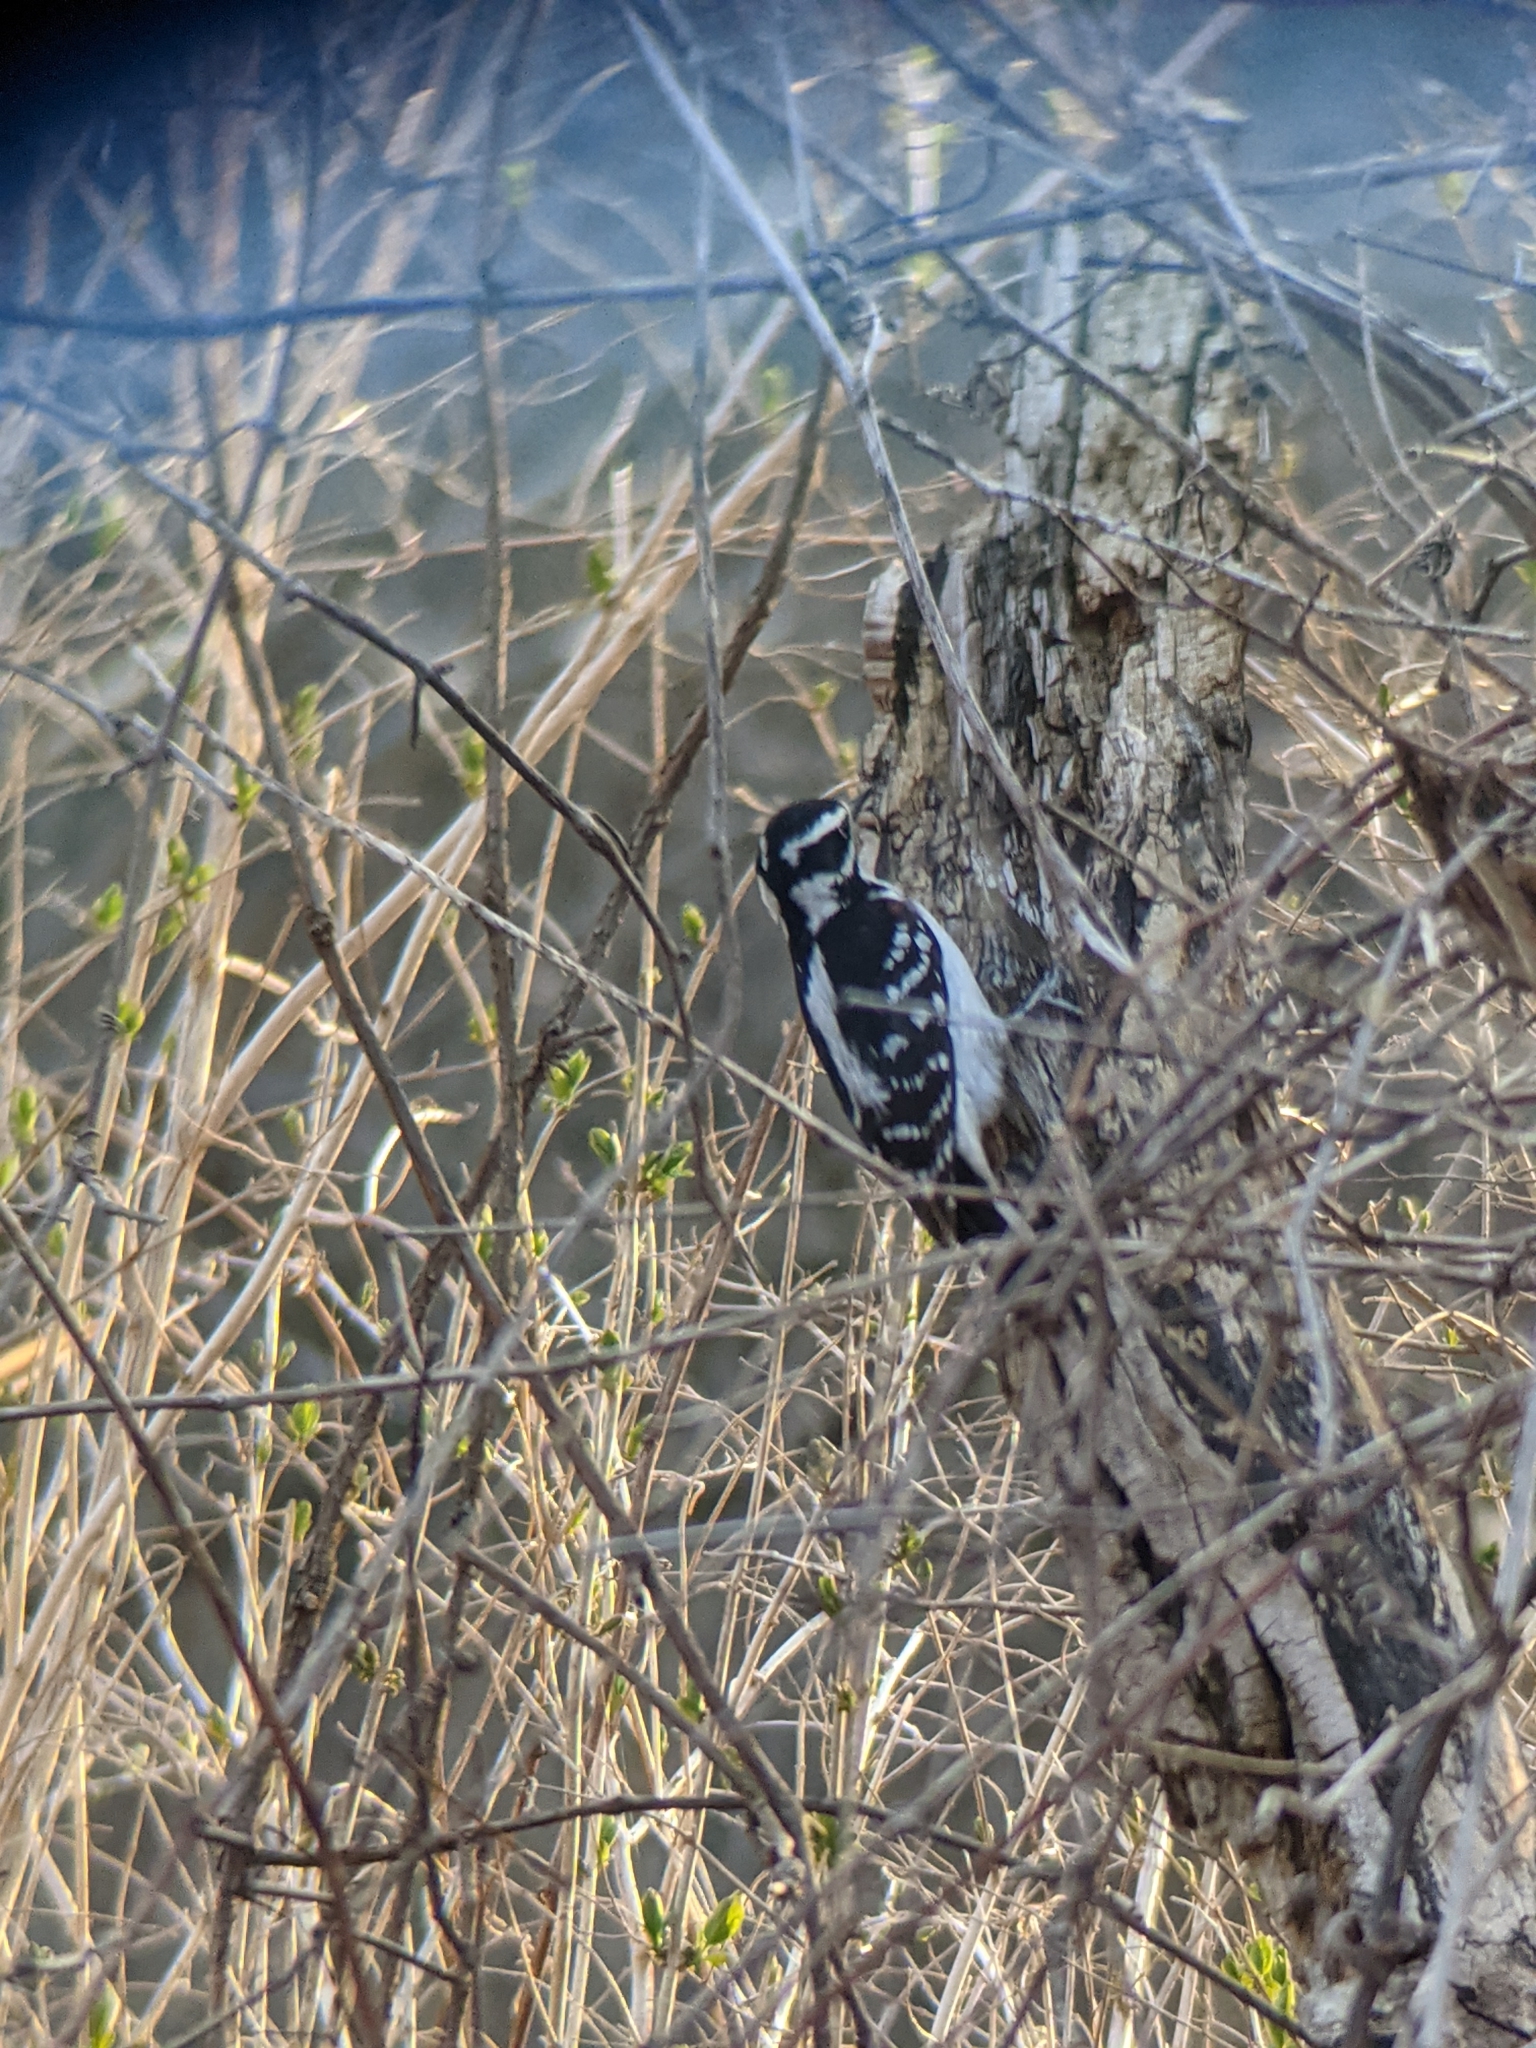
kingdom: Animalia
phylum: Chordata
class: Aves
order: Piciformes
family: Picidae
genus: Leuconotopicus
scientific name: Leuconotopicus villosus
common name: Hairy woodpecker
